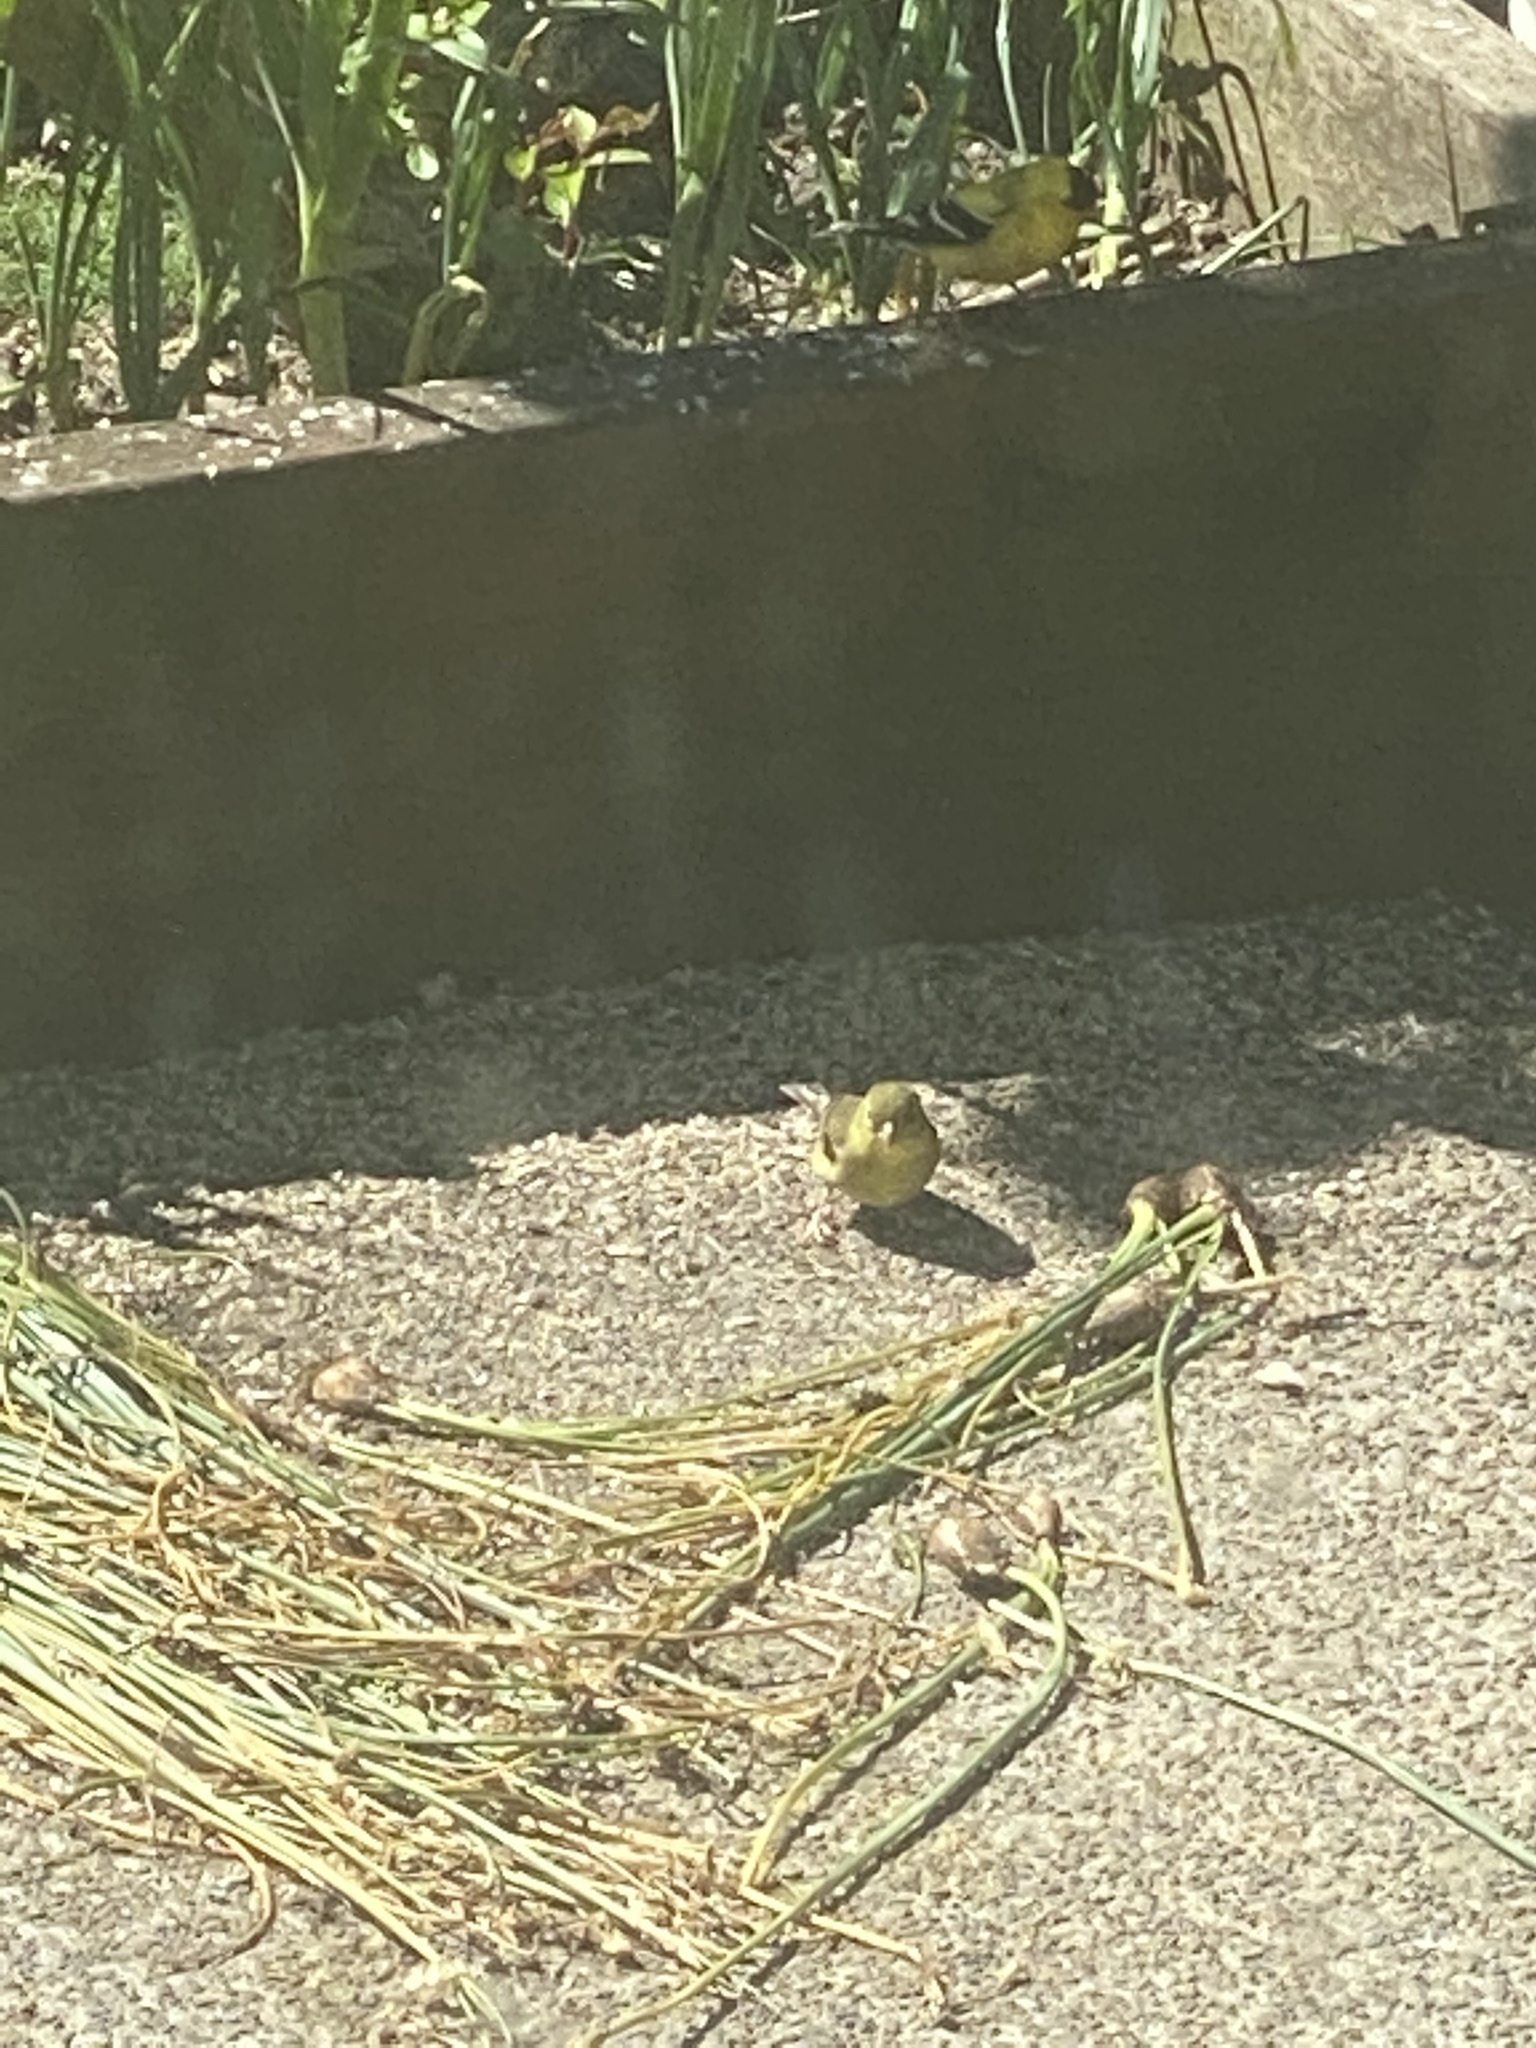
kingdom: Animalia
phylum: Chordata
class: Aves
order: Passeriformes
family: Fringillidae
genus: Spinus
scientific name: Spinus psaltria
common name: Lesser goldfinch
